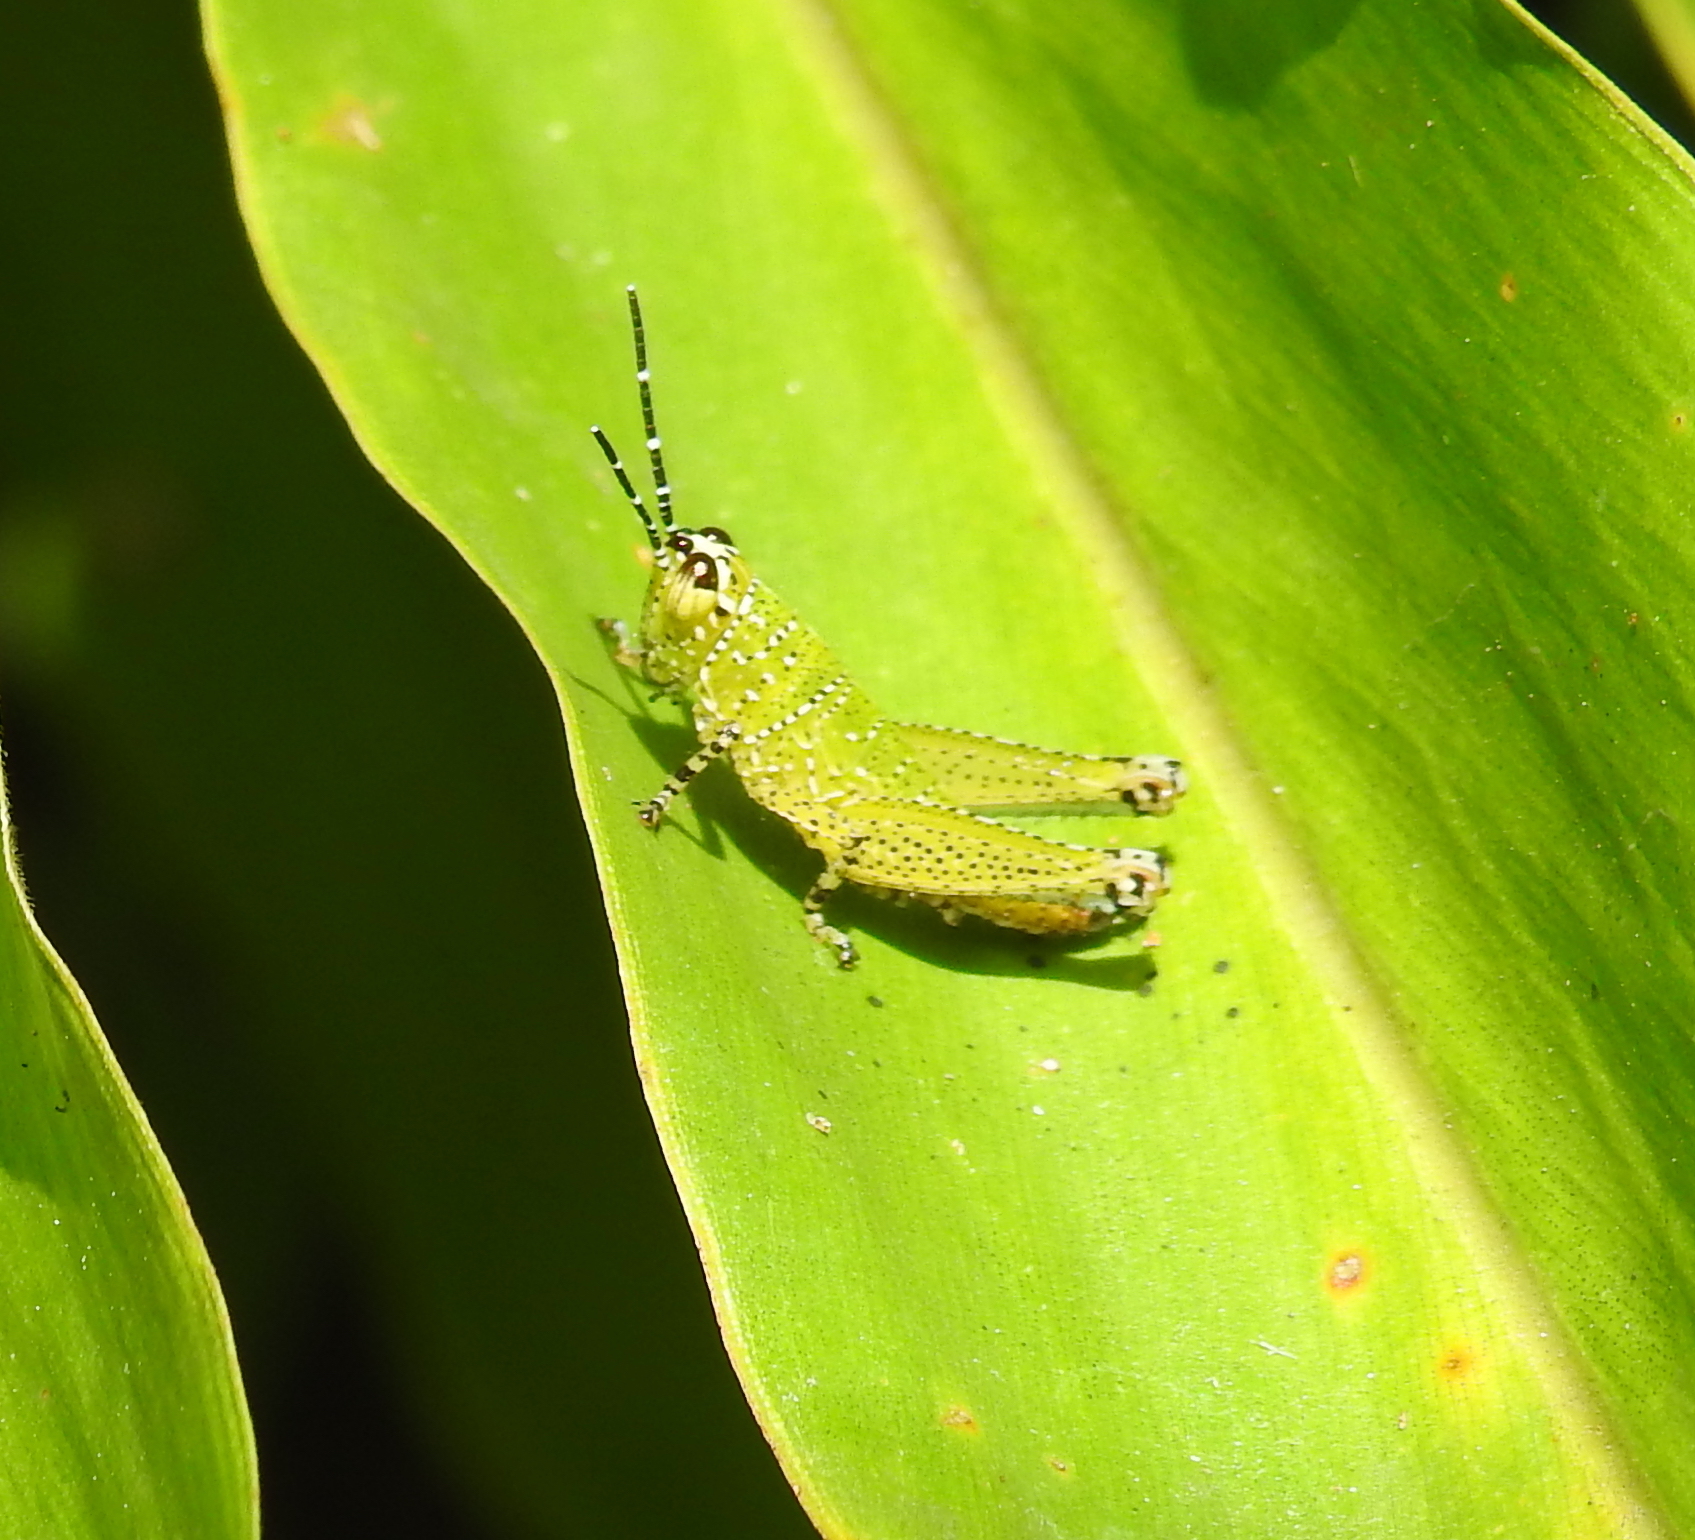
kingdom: Animalia
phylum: Arthropoda
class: Insecta
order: Orthoptera
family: Acrididae
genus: Xenocatantops
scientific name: Xenocatantops humile
